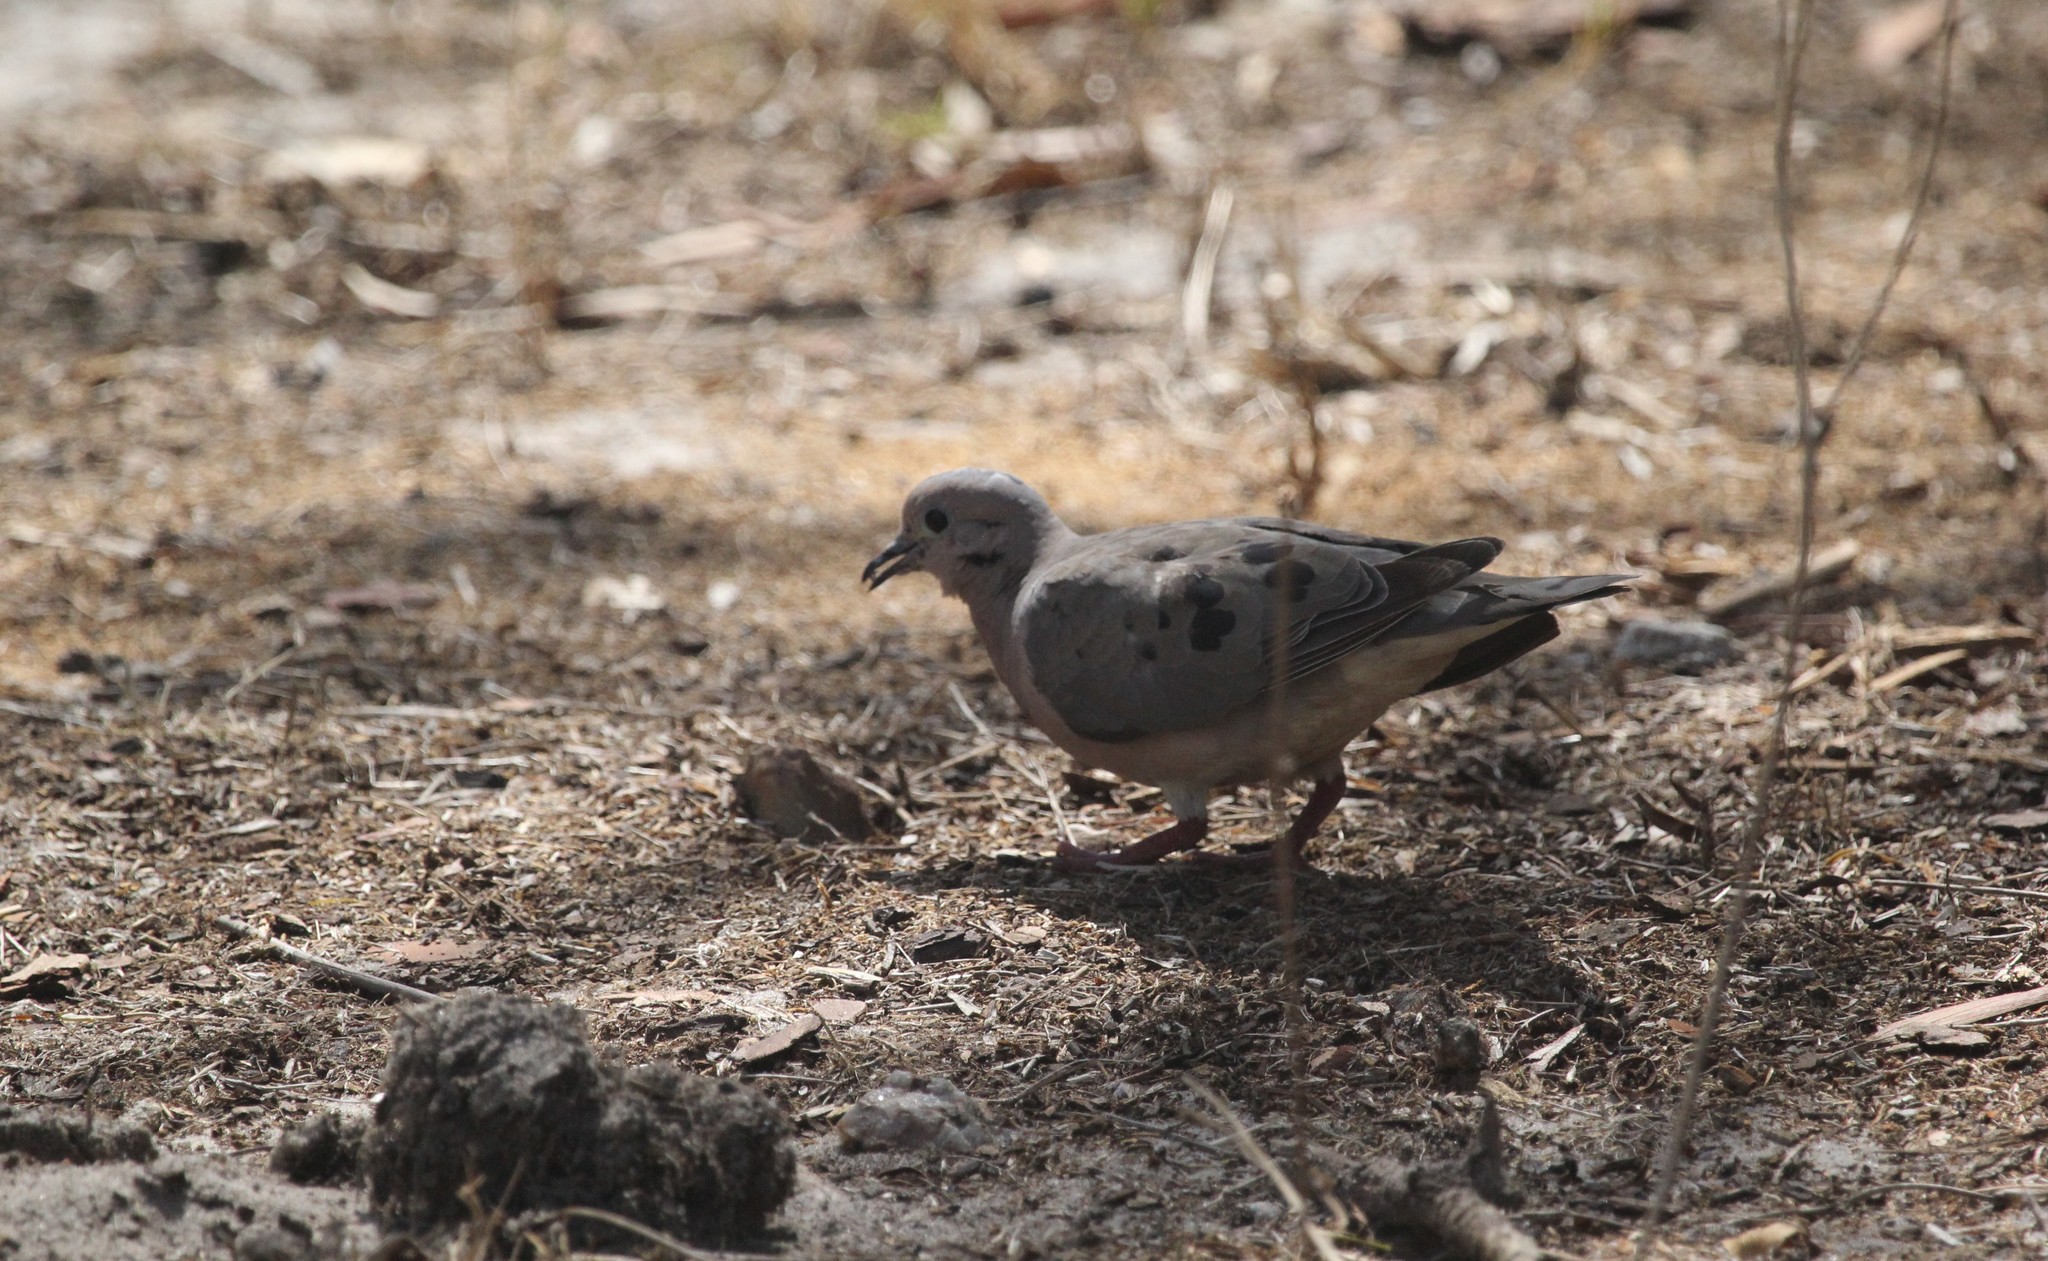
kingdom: Animalia
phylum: Chordata
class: Aves
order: Columbiformes
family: Columbidae
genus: Zenaida
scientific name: Zenaida auriculata
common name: Eared dove
